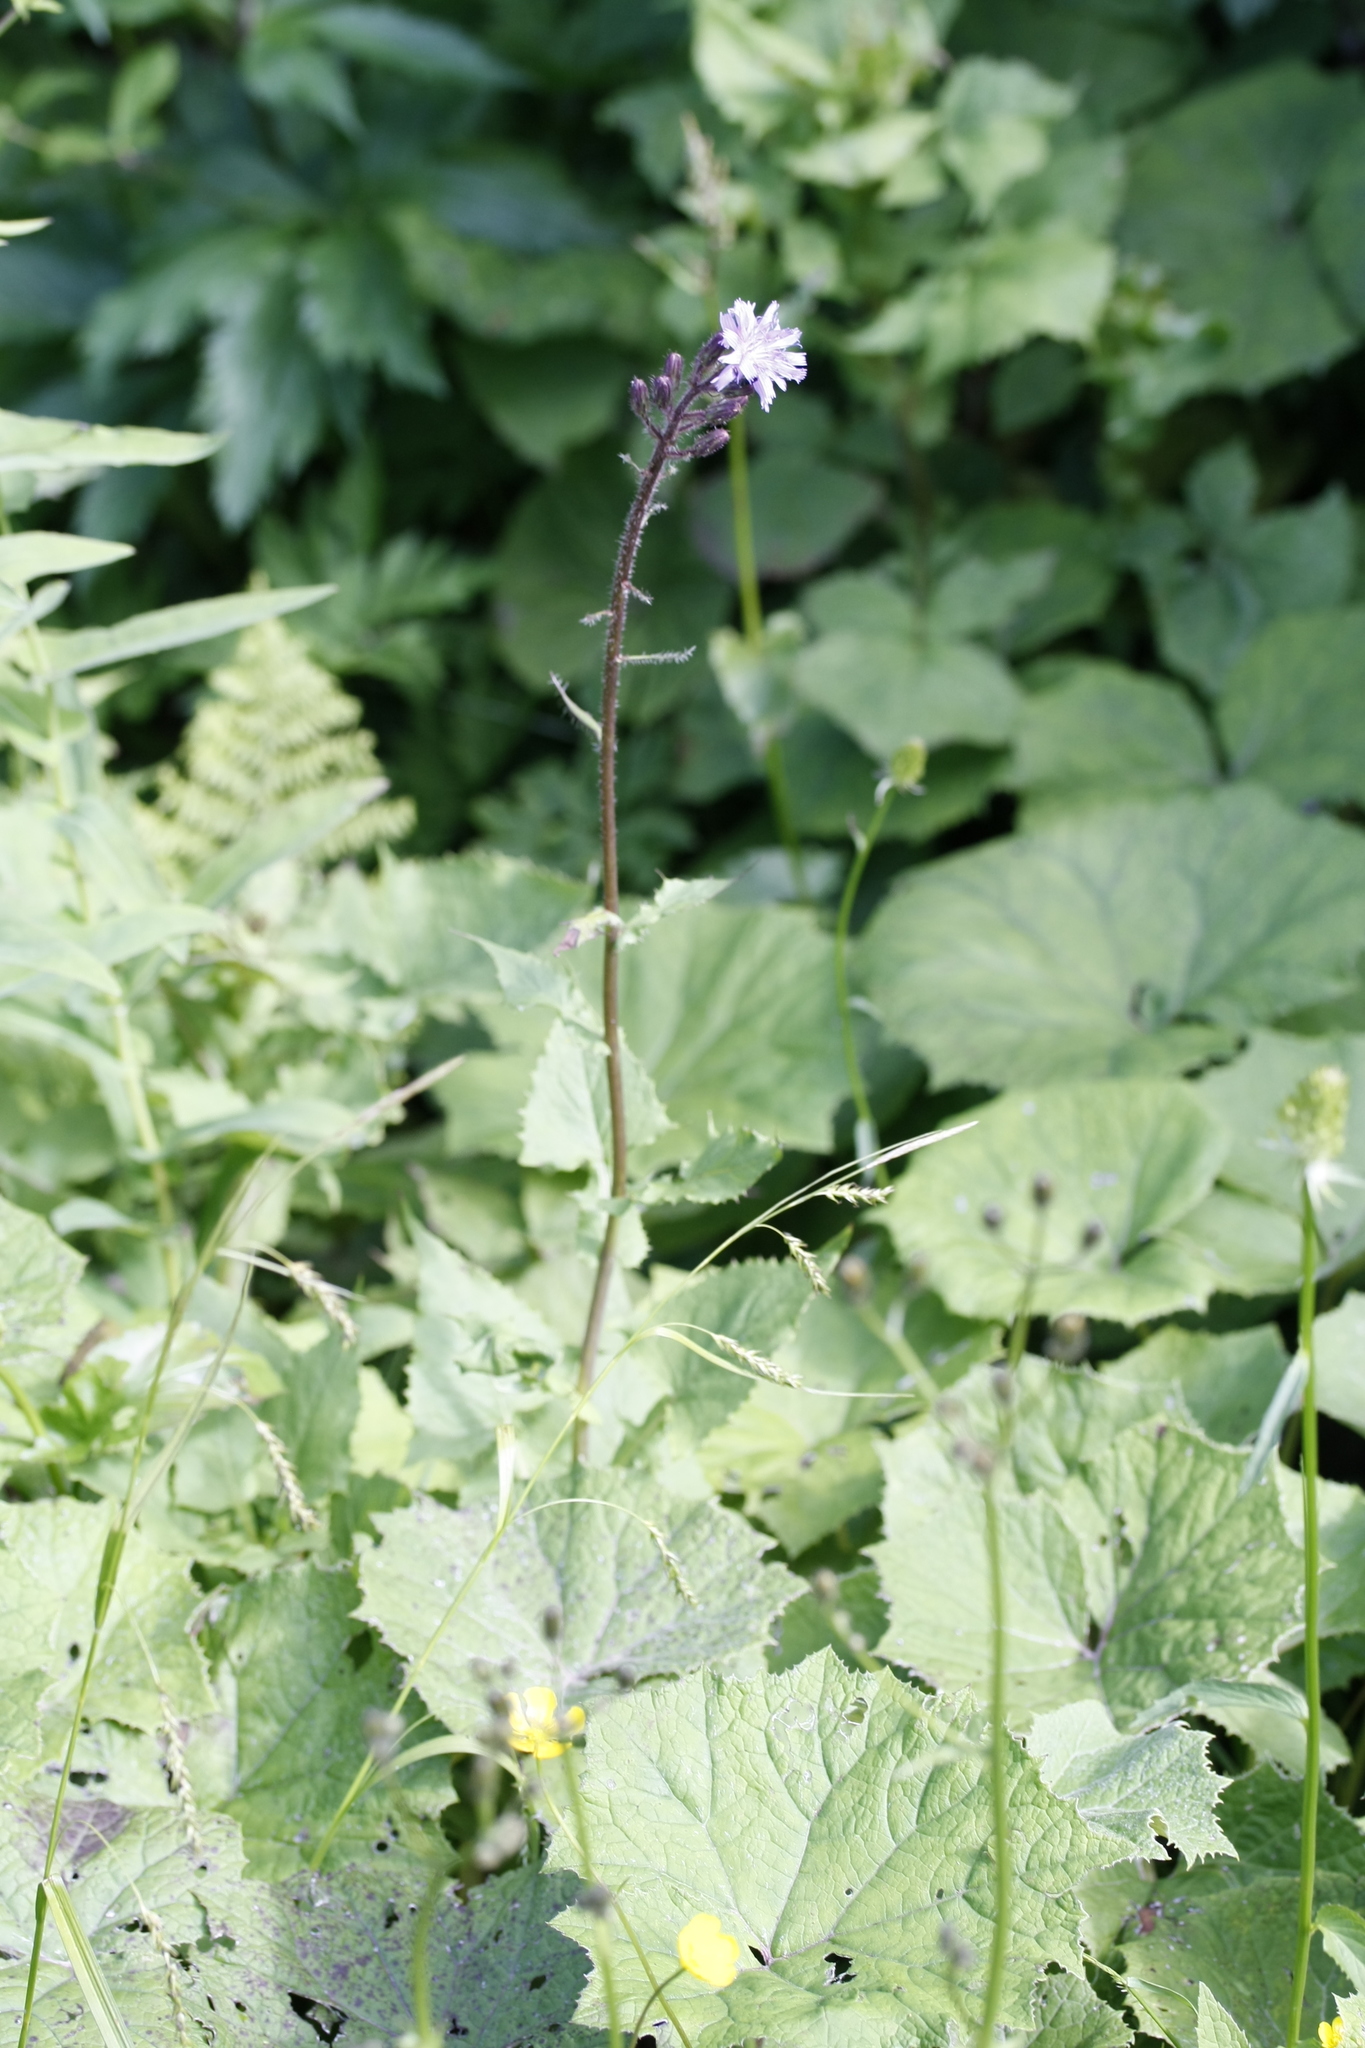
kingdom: Plantae
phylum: Tracheophyta
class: Magnoliopsida
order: Asterales
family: Asteraceae
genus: Cicerbita
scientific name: Cicerbita alpina
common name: Alpine blue-sow-thistle
